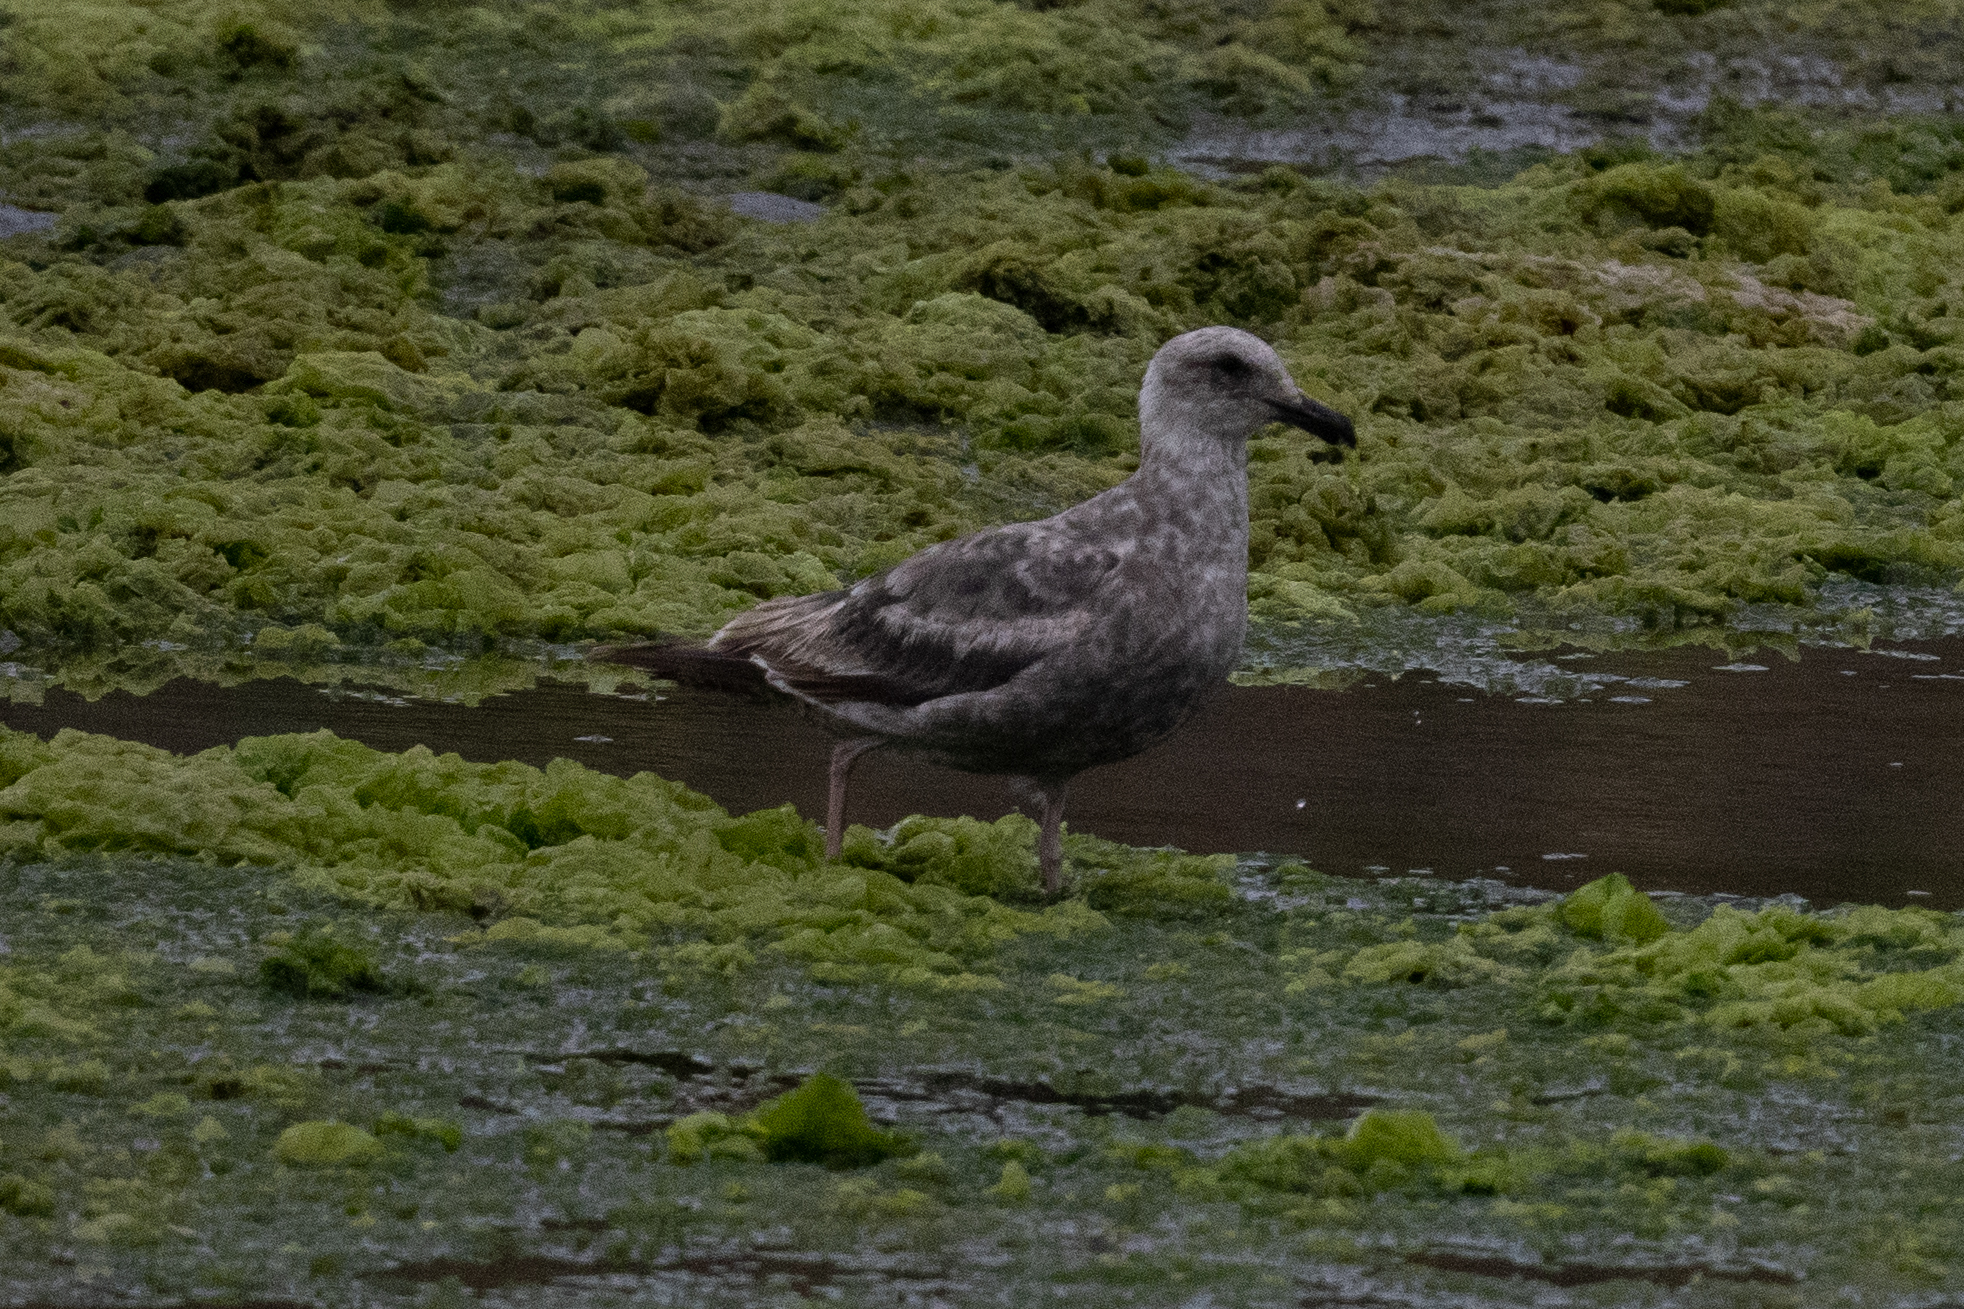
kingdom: Animalia
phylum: Chordata
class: Aves
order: Charadriiformes
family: Laridae
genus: Larus
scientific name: Larus occidentalis
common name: Western gull
